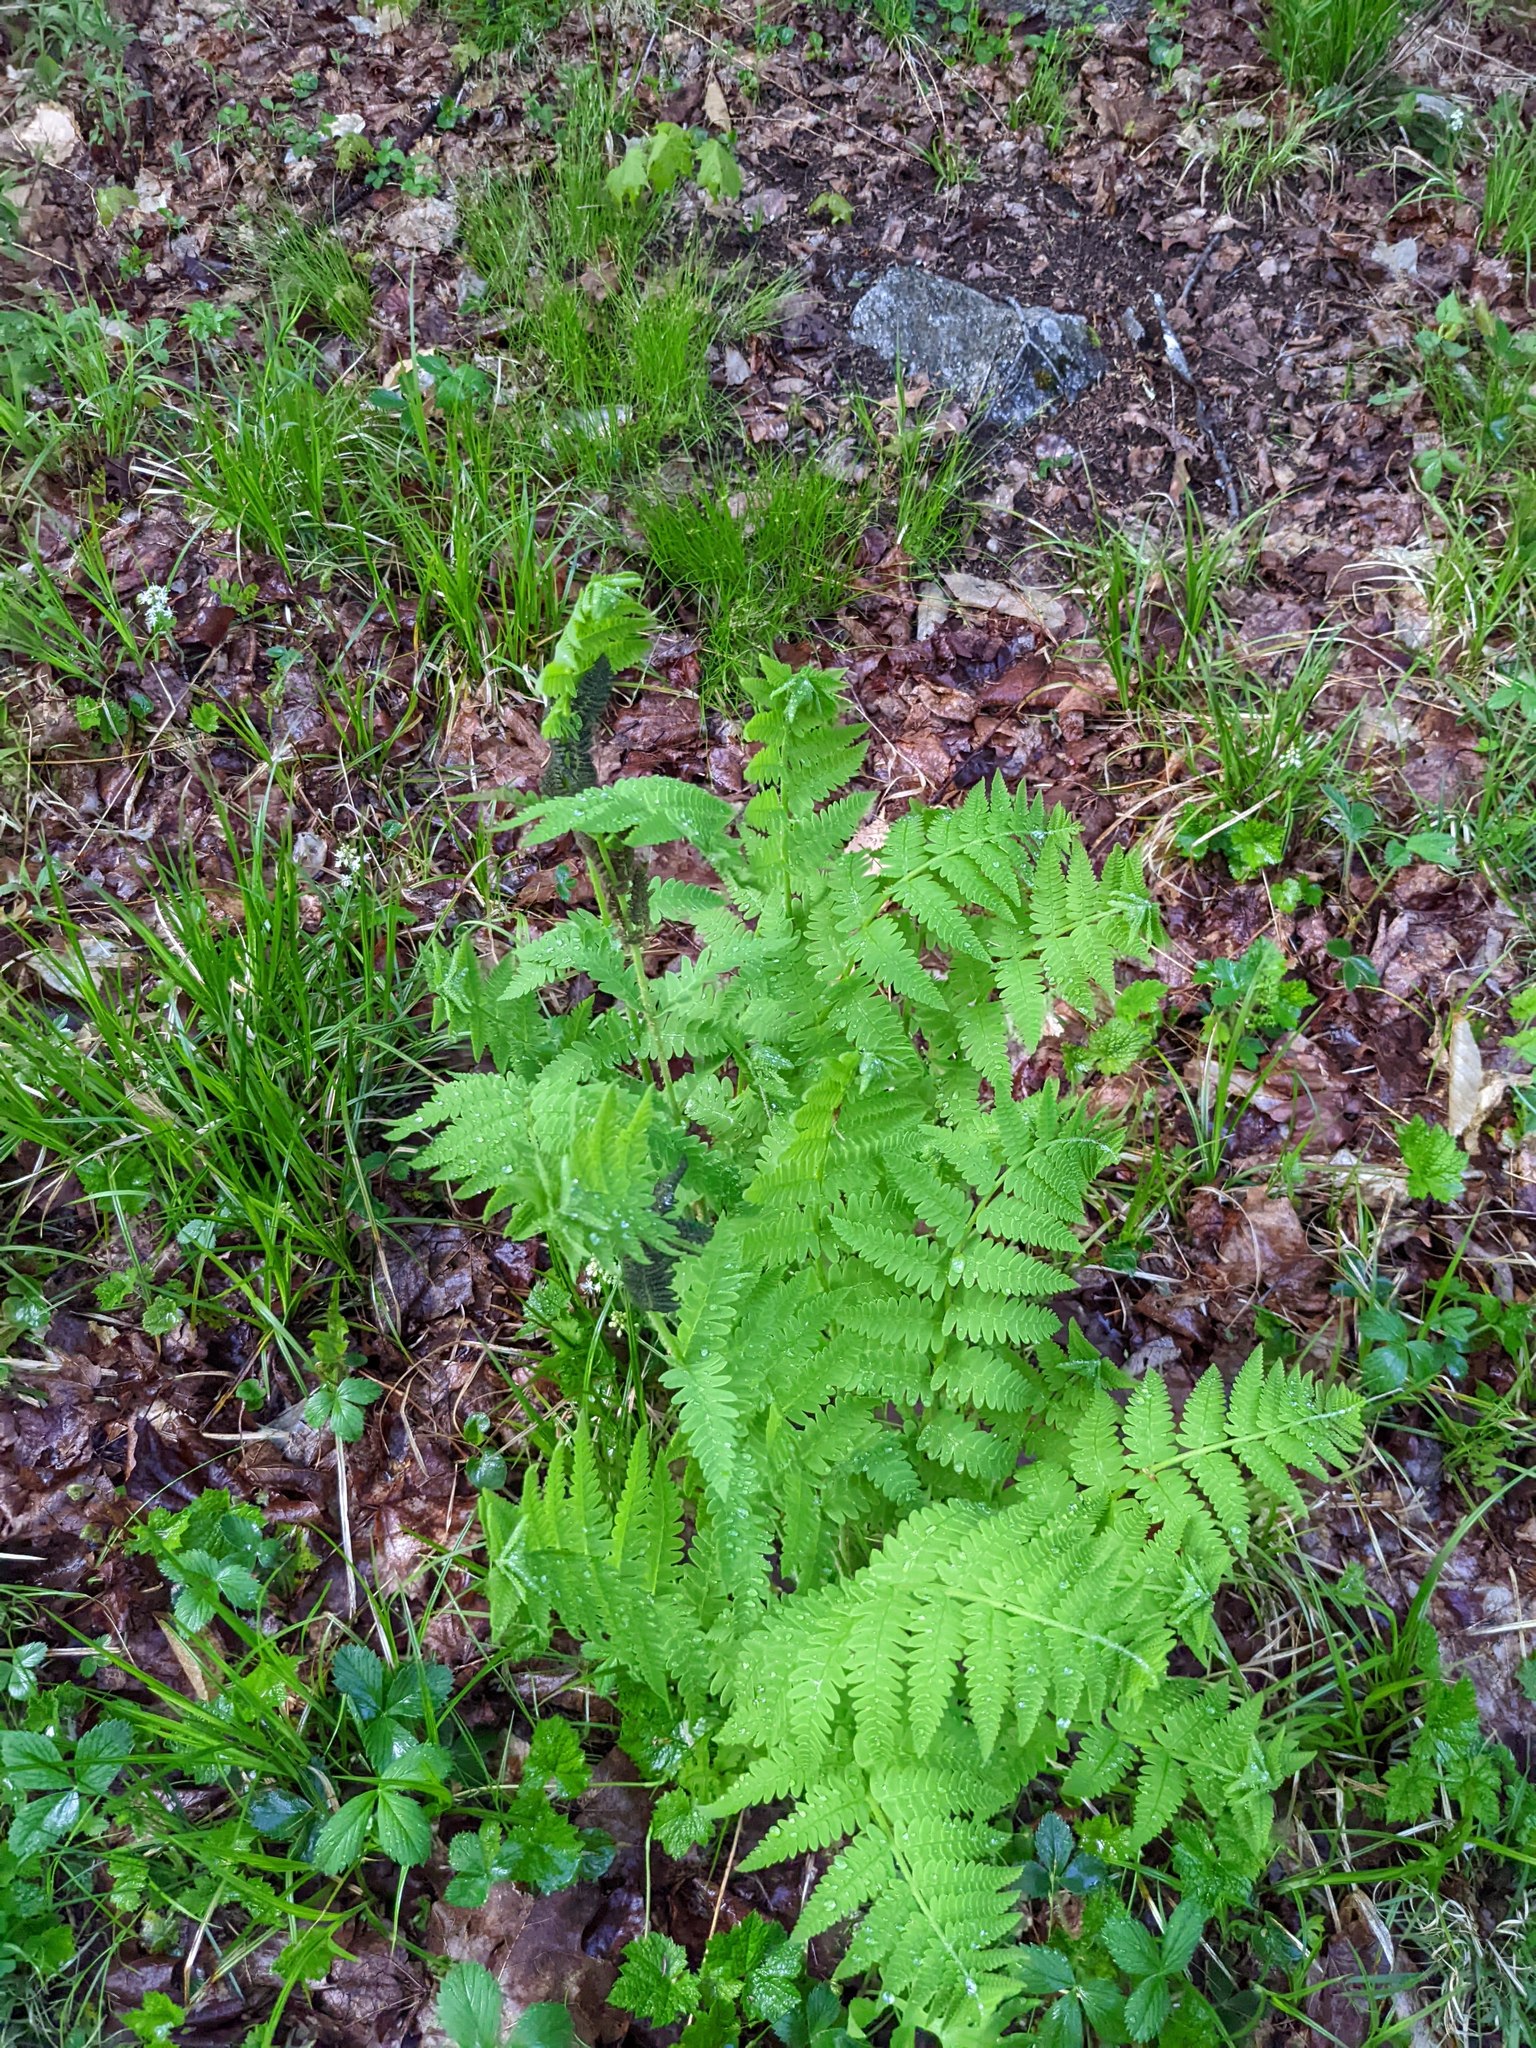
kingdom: Plantae
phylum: Tracheophyta
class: Polypodiopsida
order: Osmundales
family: Osmundaceae
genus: Claytosmunda
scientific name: Claytosmunda claytoniana
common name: Clayton's fern
